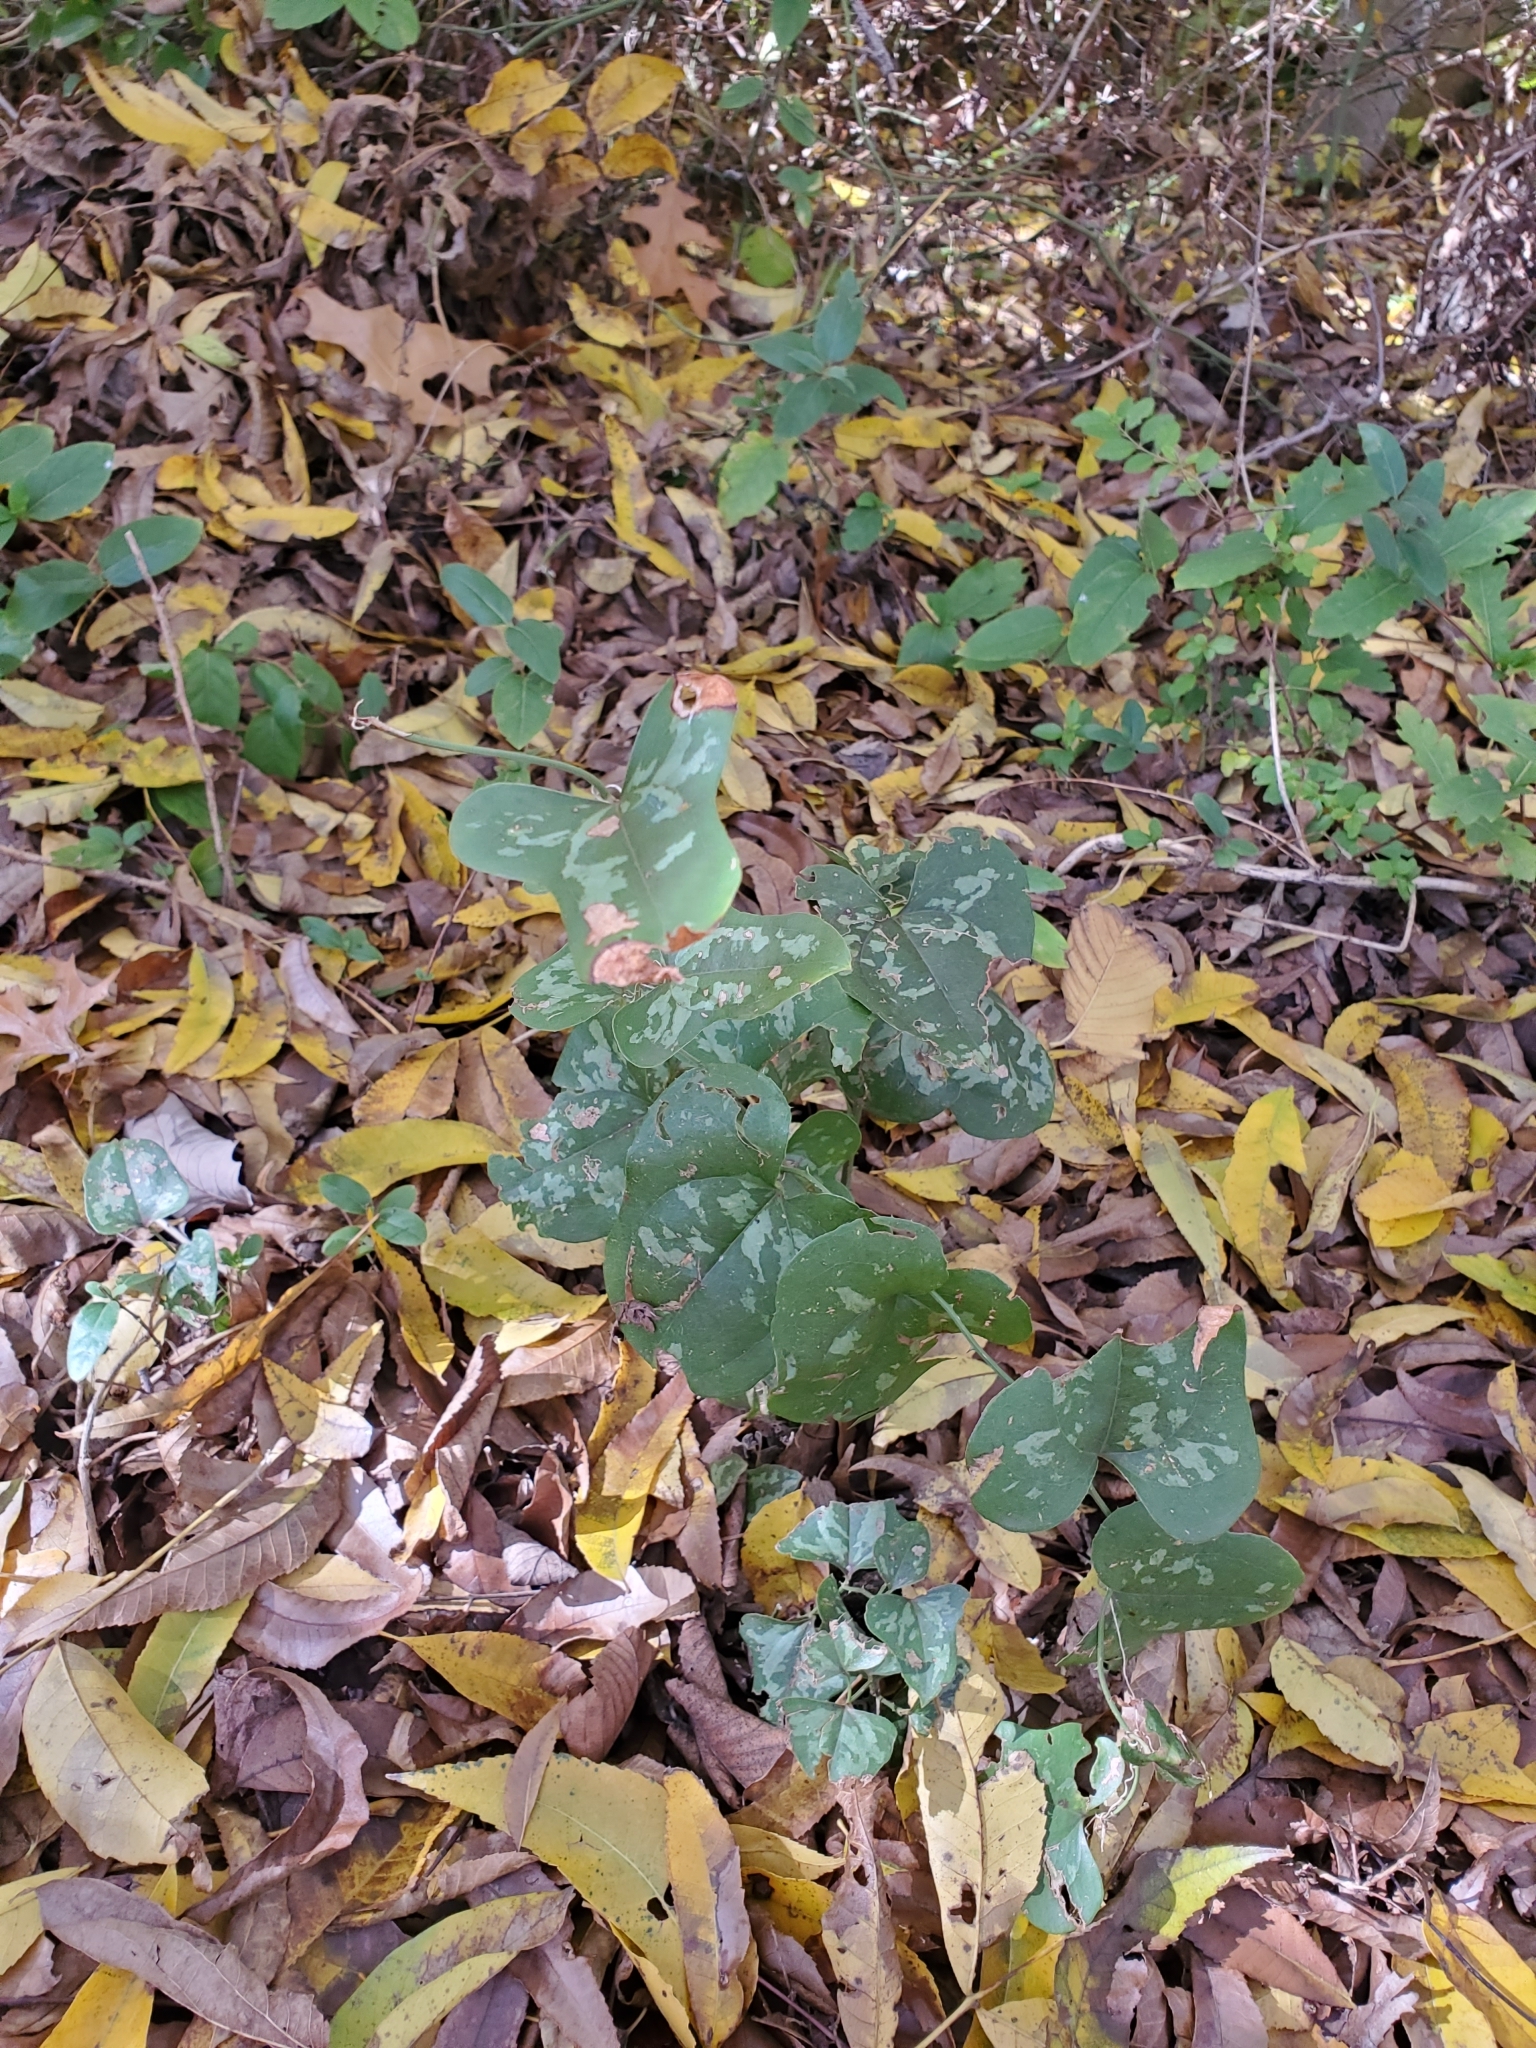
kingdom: Plantae
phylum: Tracheophyta
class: Liliopsida
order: Liliales
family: Smilacaceae
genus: Smilax
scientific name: Smilax bona-nox
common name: Catbrier
